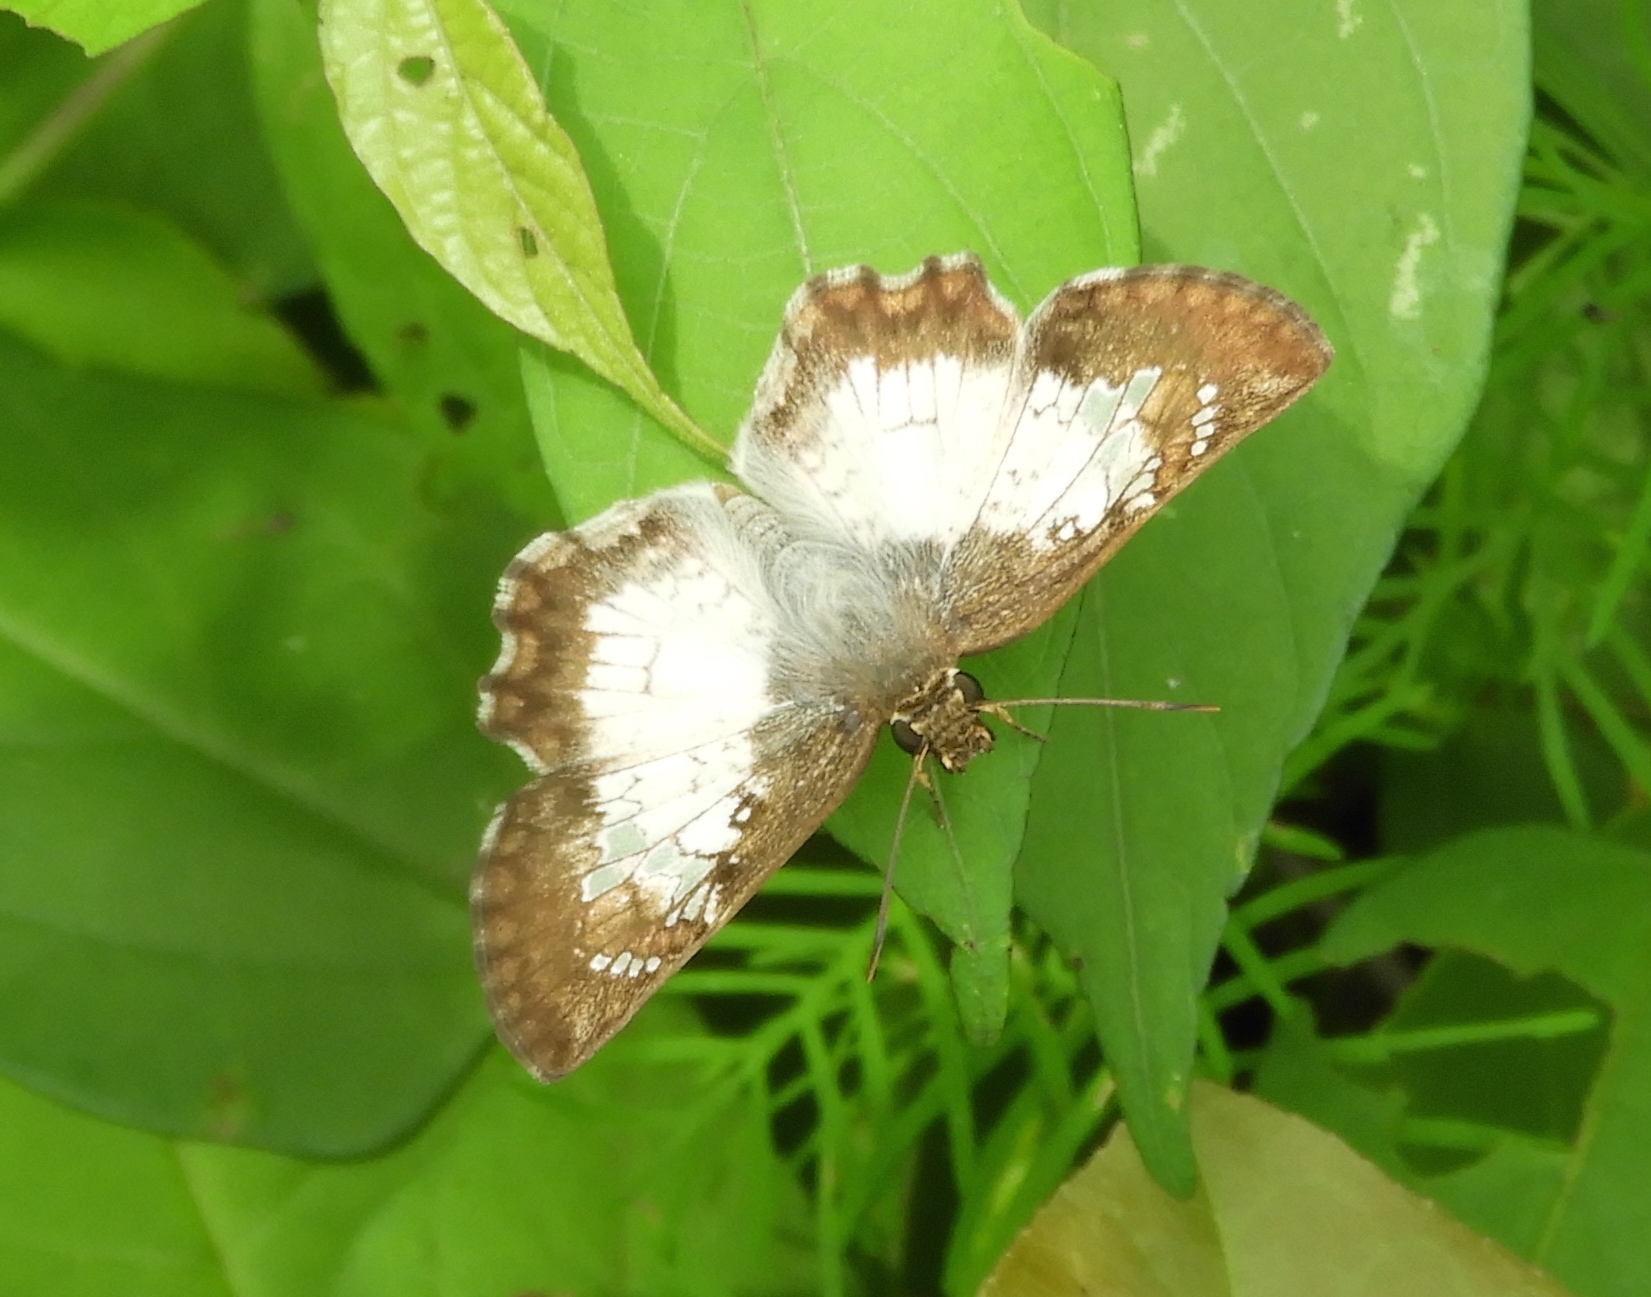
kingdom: Animalia
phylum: Arthropoda
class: Insecta
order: Lepidoptera
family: Hesperiidae
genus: Antigonus
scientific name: Antigonus emorsa
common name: White spurwing
